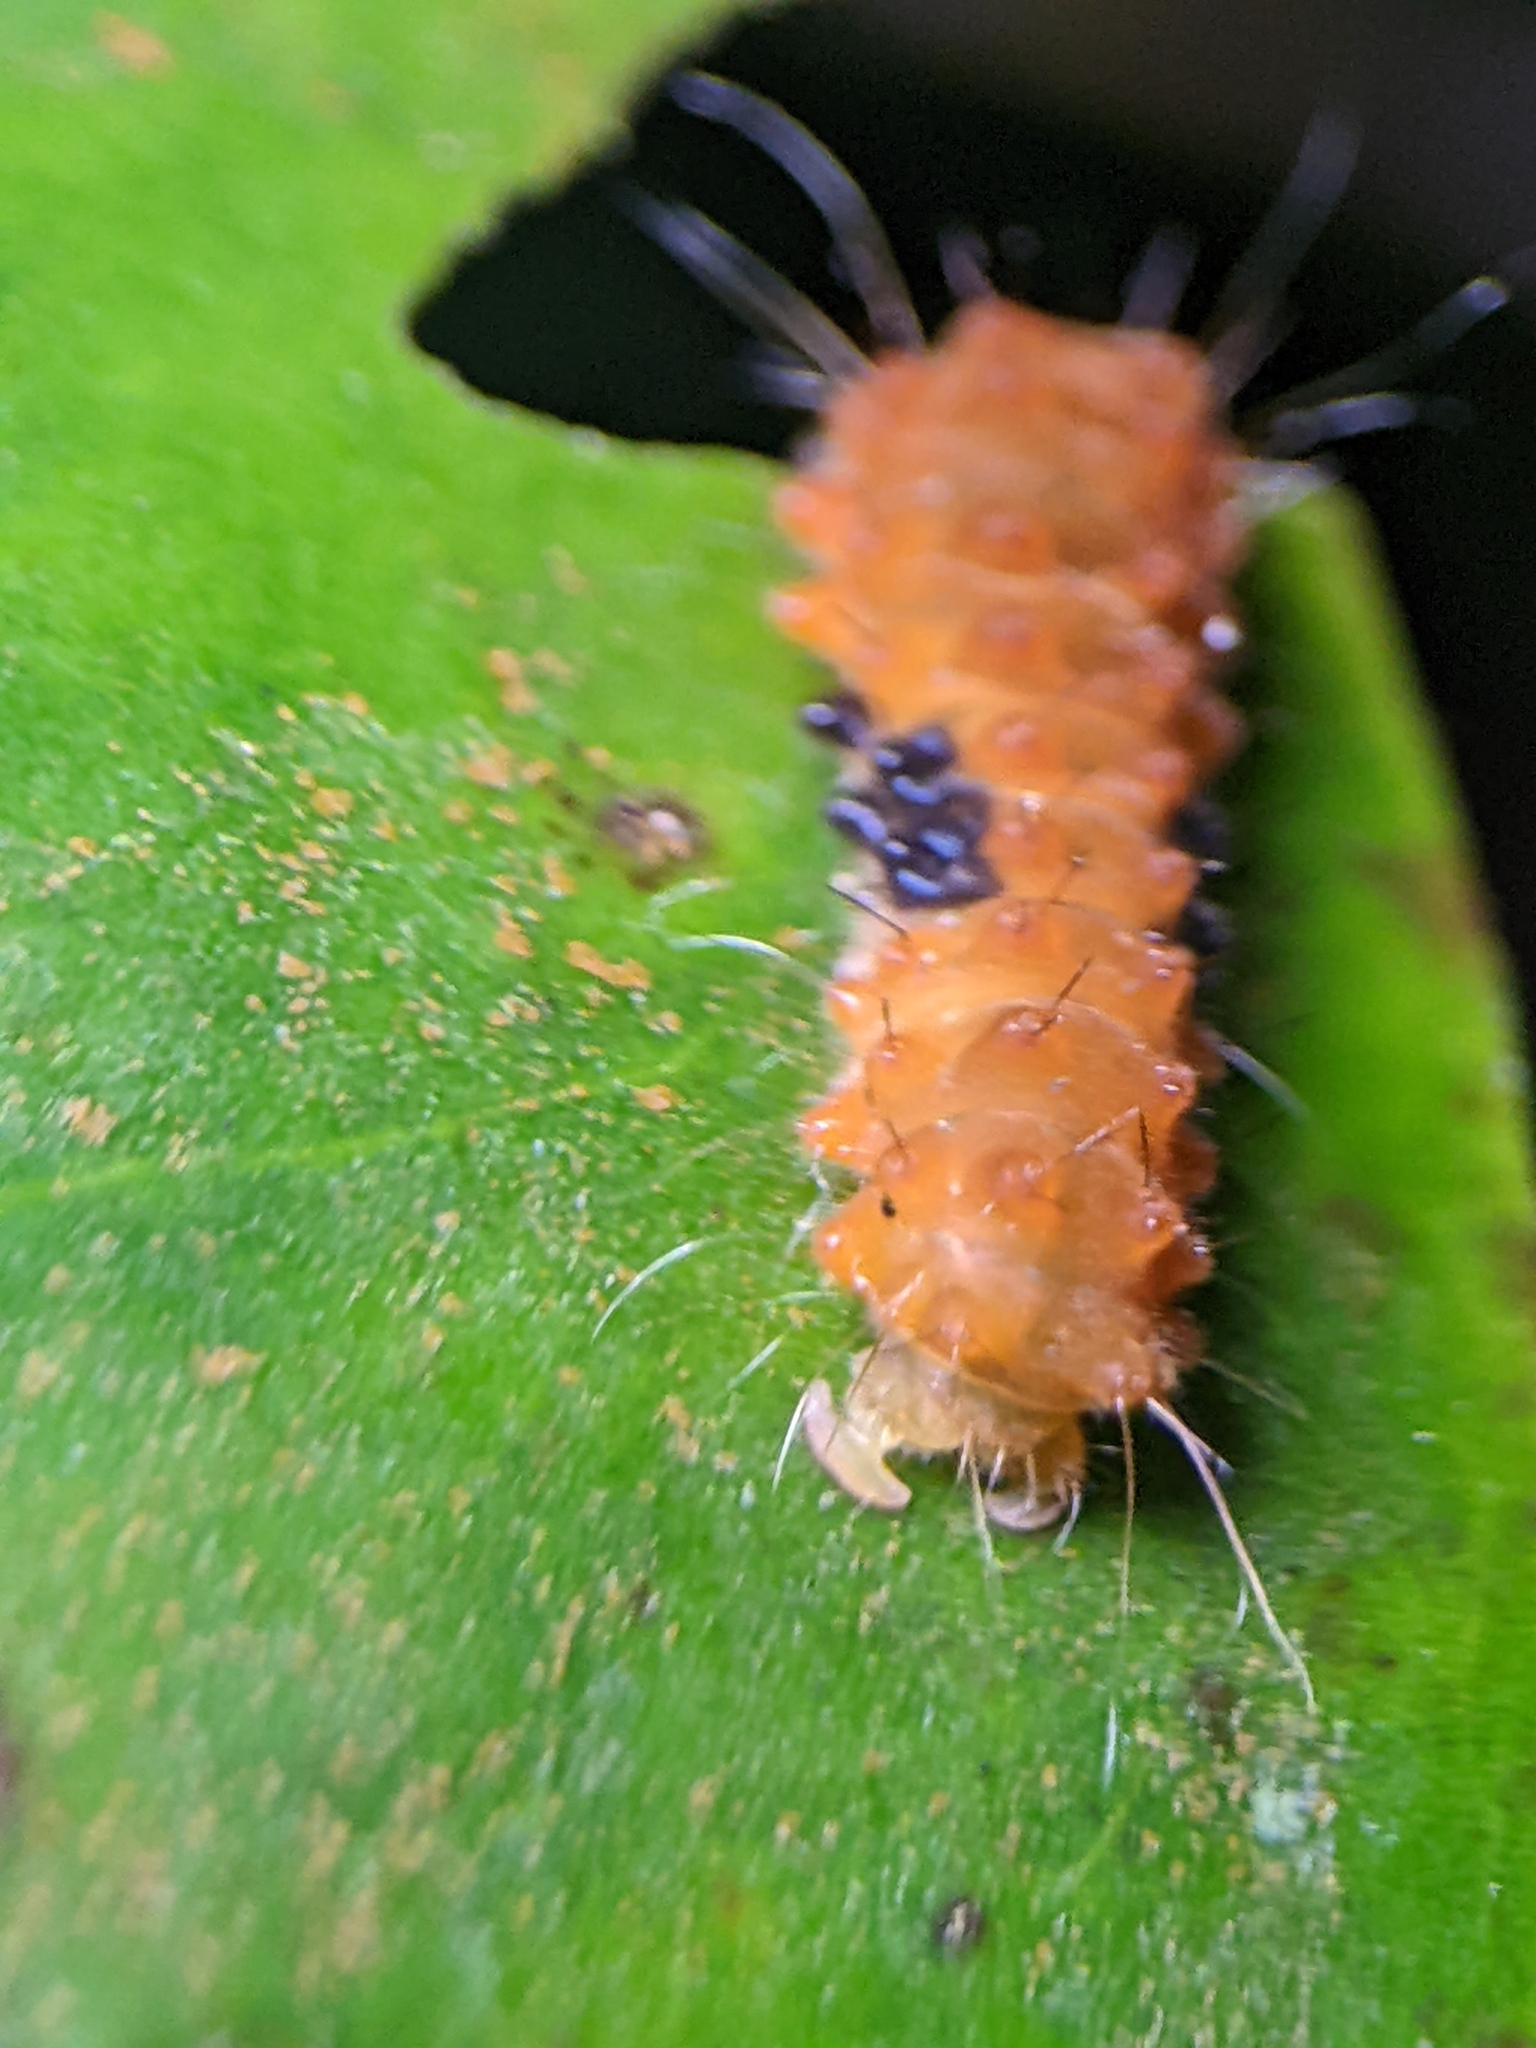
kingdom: Animalia
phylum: Arthropoda
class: Insecta
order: Lepidoptera
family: Zygaenidae
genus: Eterusia
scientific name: Eterusia risa
